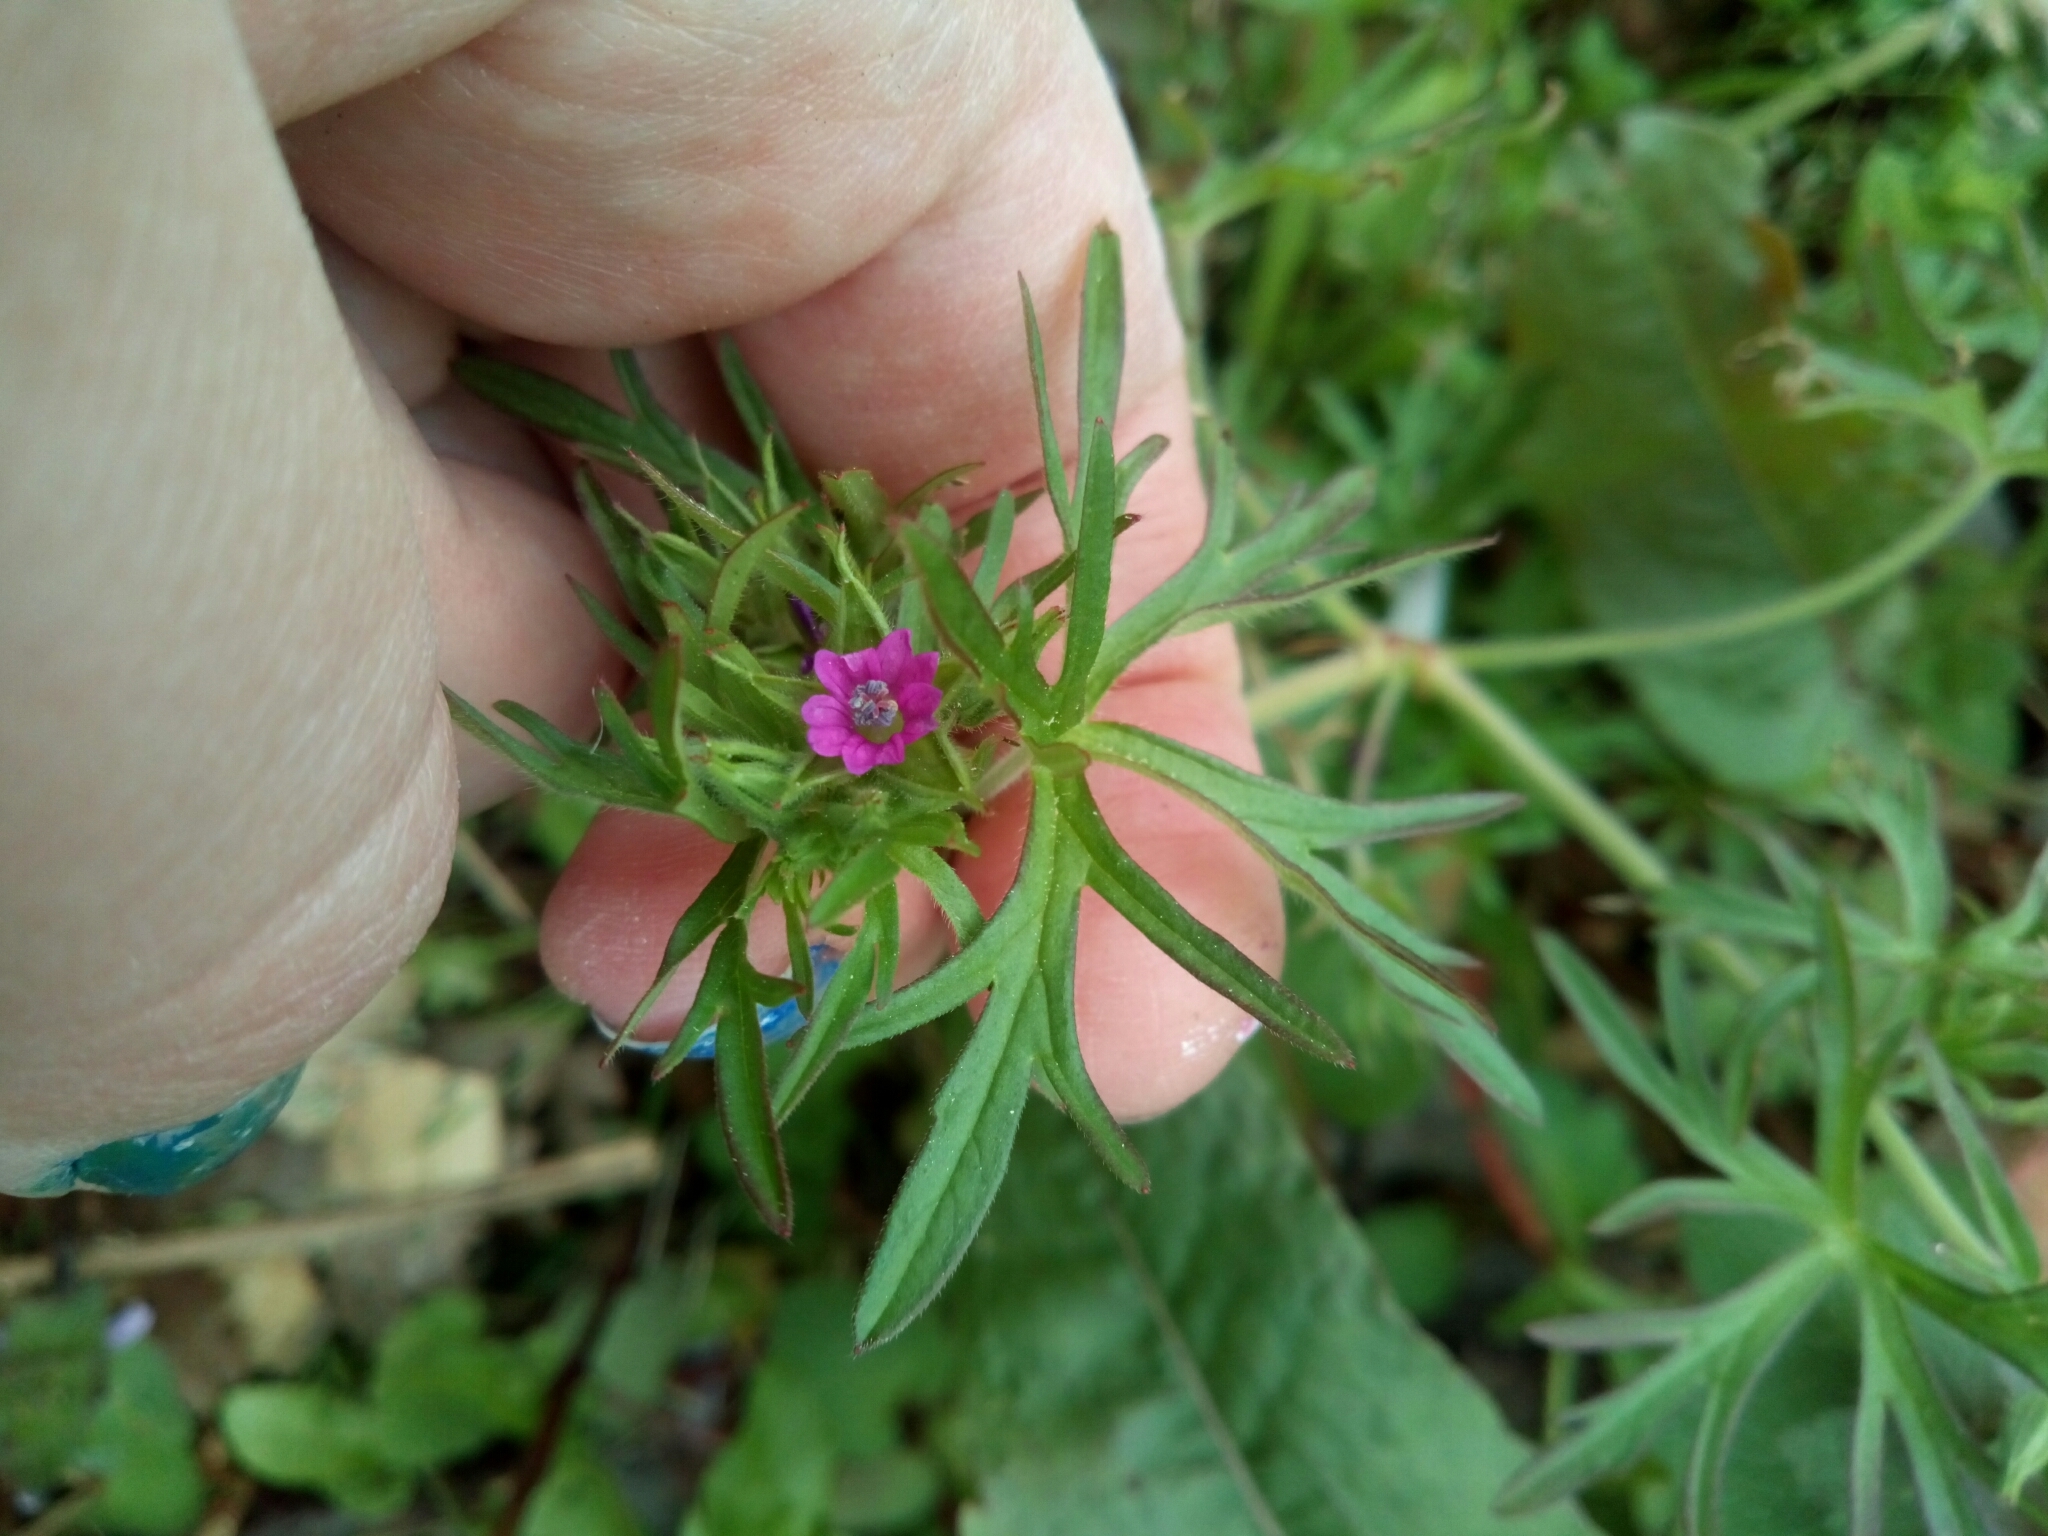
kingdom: Plantae
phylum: Tracheophyta
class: Magnoliopsida
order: Geraniales
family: Geraniaceae
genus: Geranium
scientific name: Geranium dissectum
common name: Cut-leaved crane's-bill
